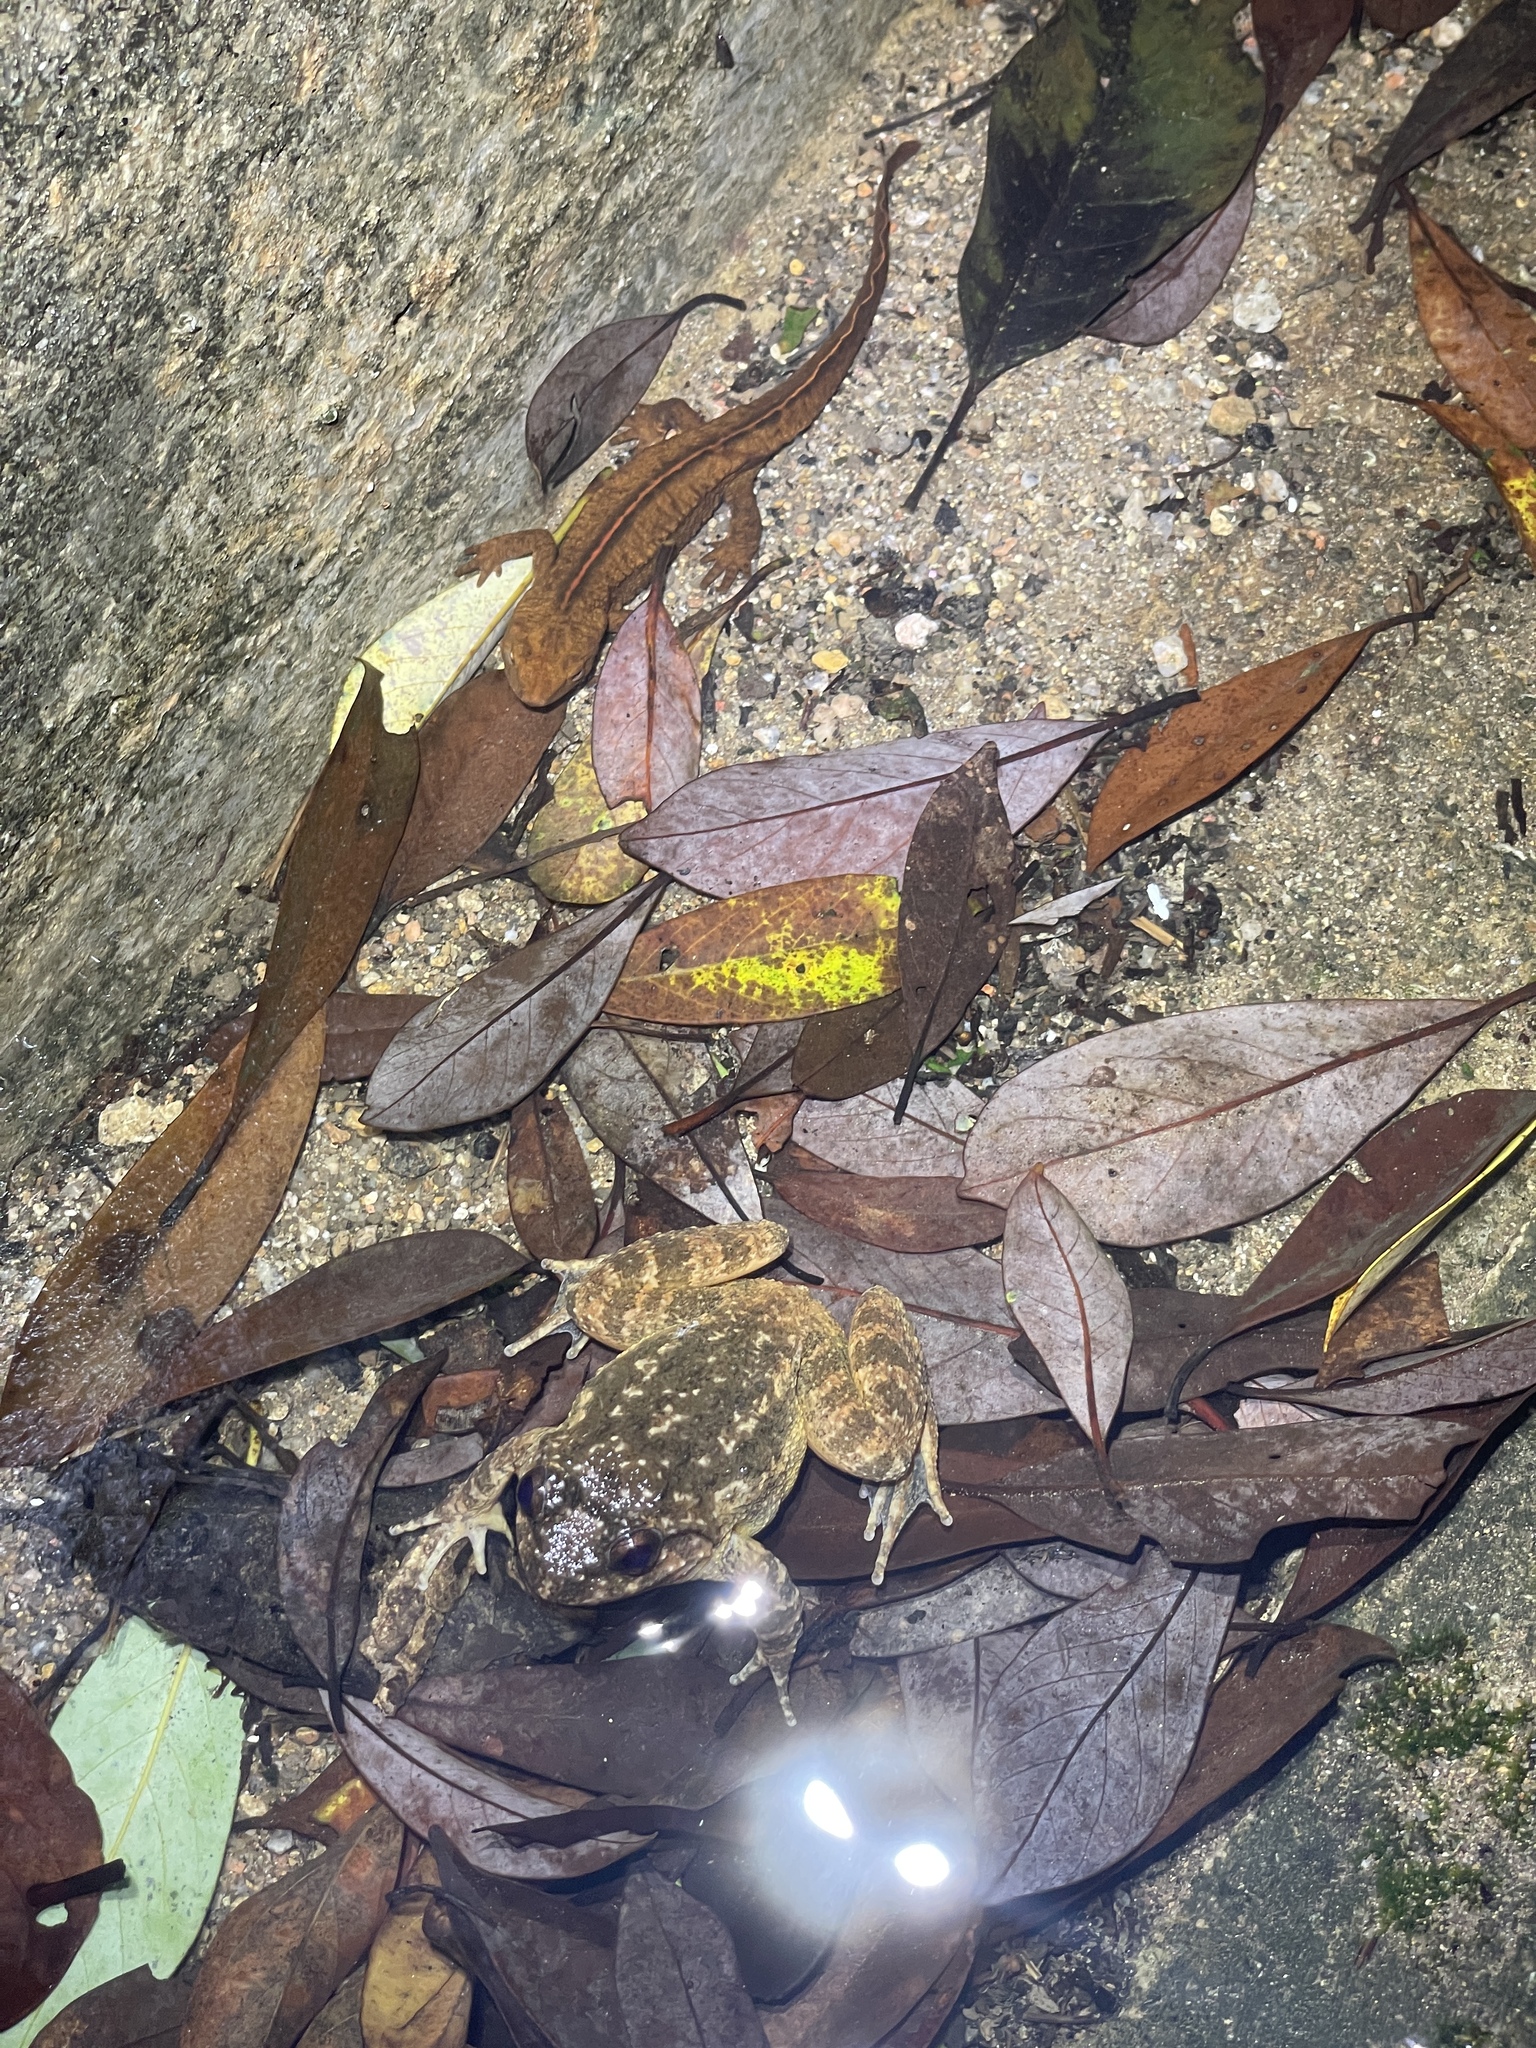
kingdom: Animalia
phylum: Chordata
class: Amphibia
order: Caudata
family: Salamandridae
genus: Paramesotriton
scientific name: Paramesotriton hongkongensis
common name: Hong kong warty newt
